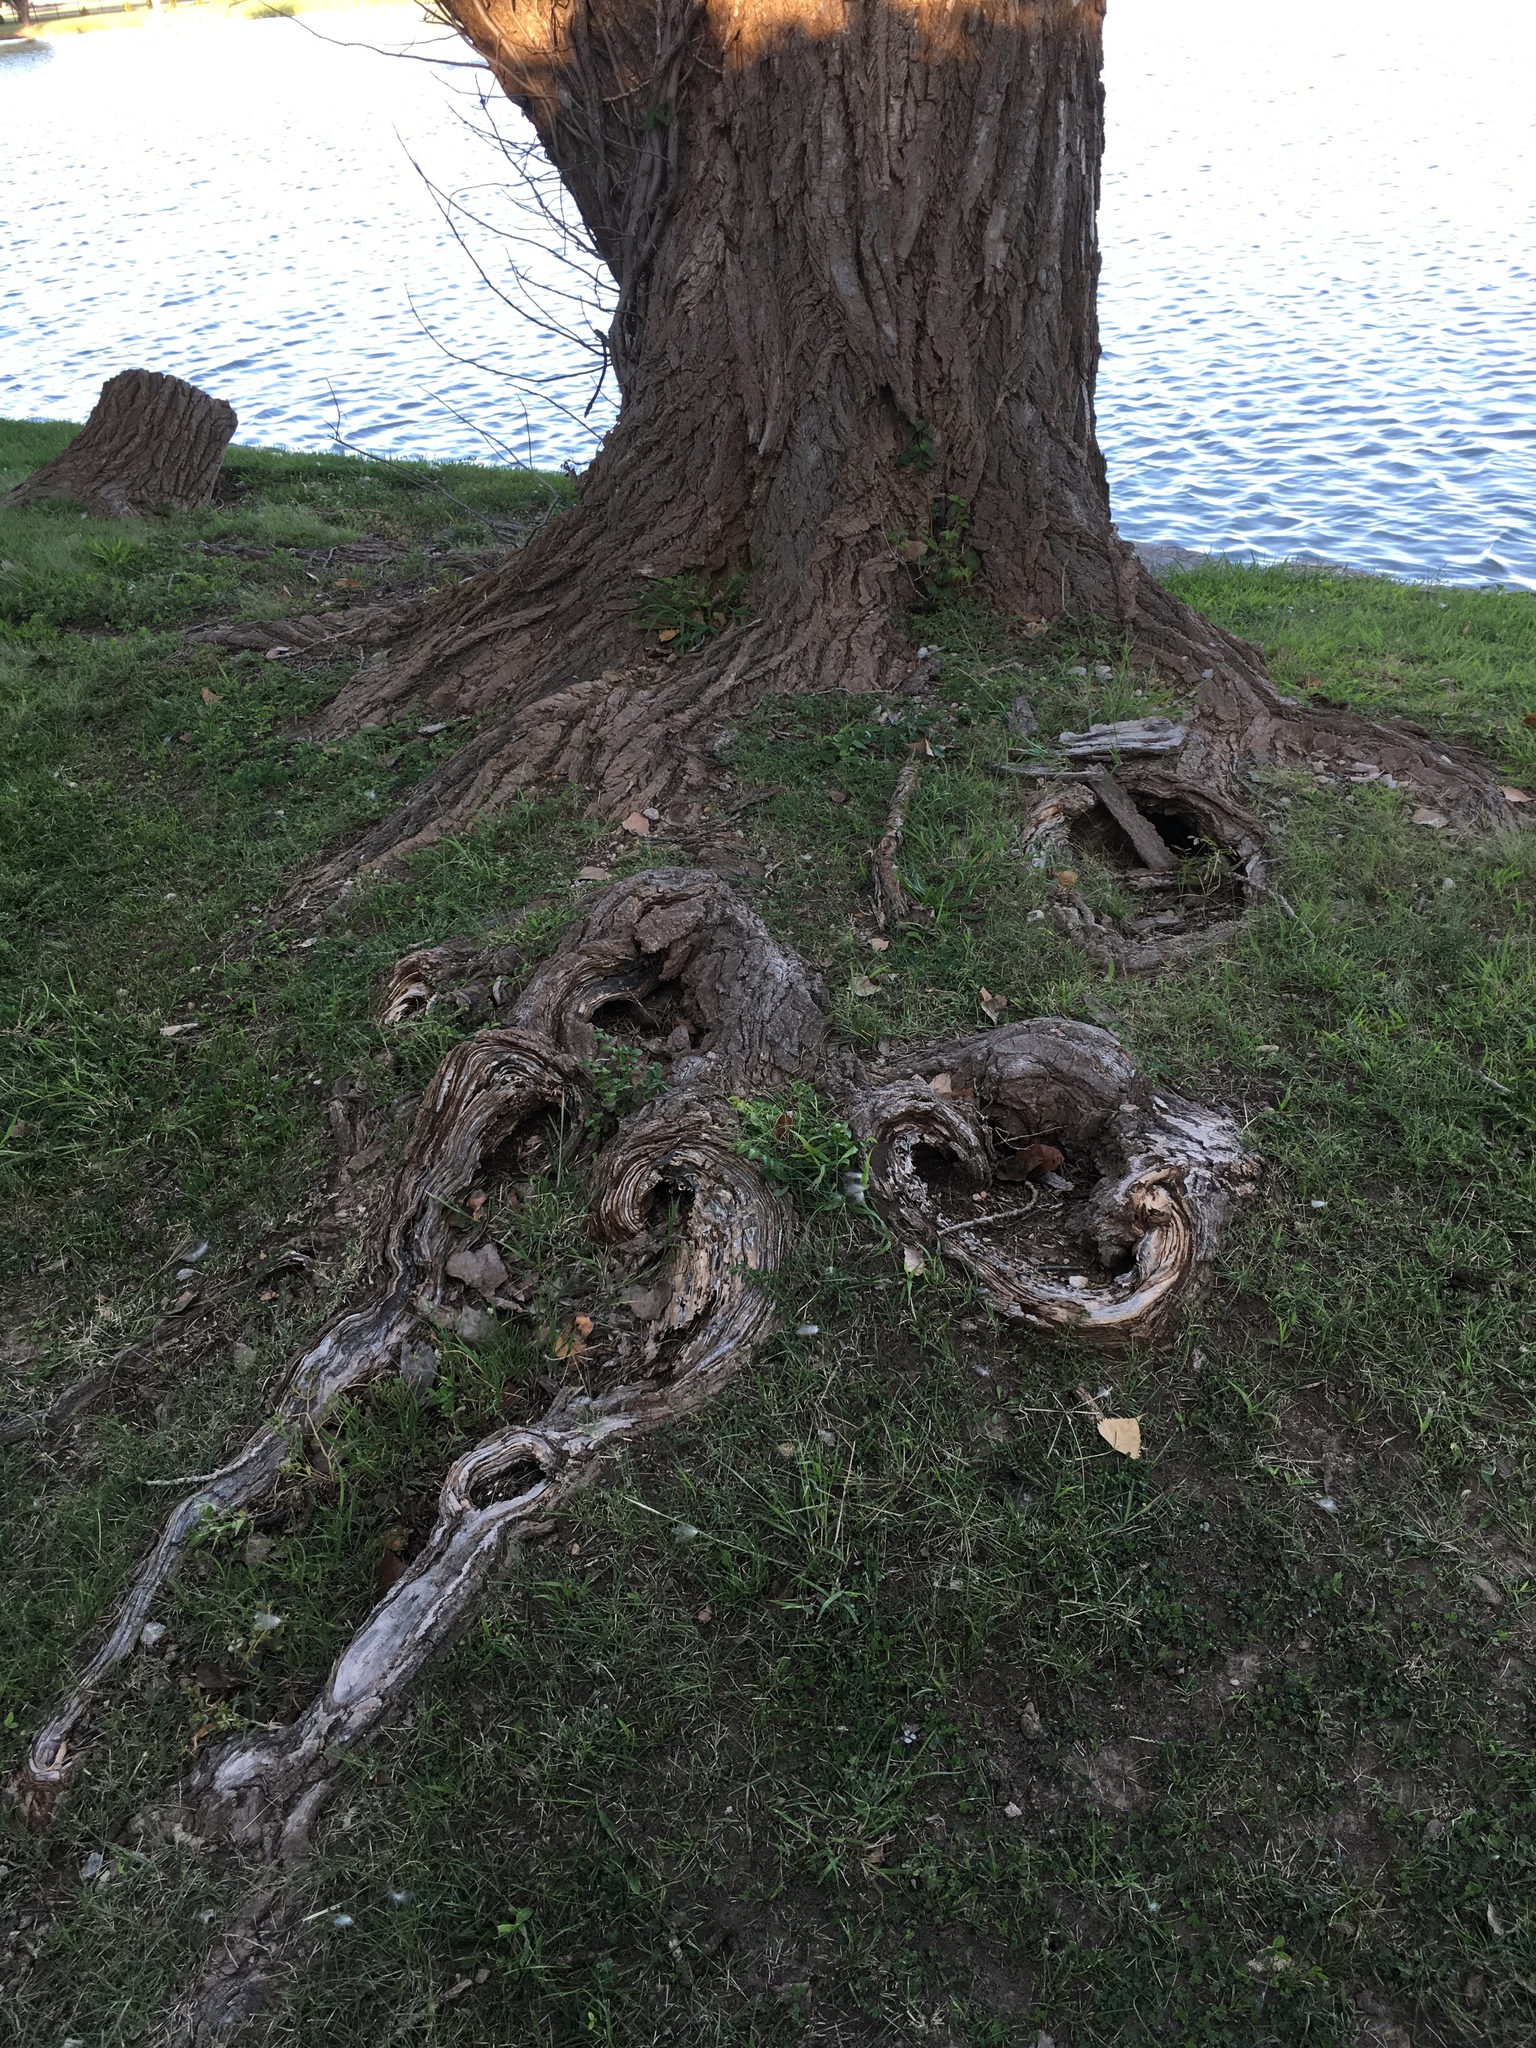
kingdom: Plantae
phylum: Tracheophyta
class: Magnoliopsida
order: Malpighiales
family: Salicaceae
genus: Populus
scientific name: Populus deltoides
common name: Eastern cottonwood
